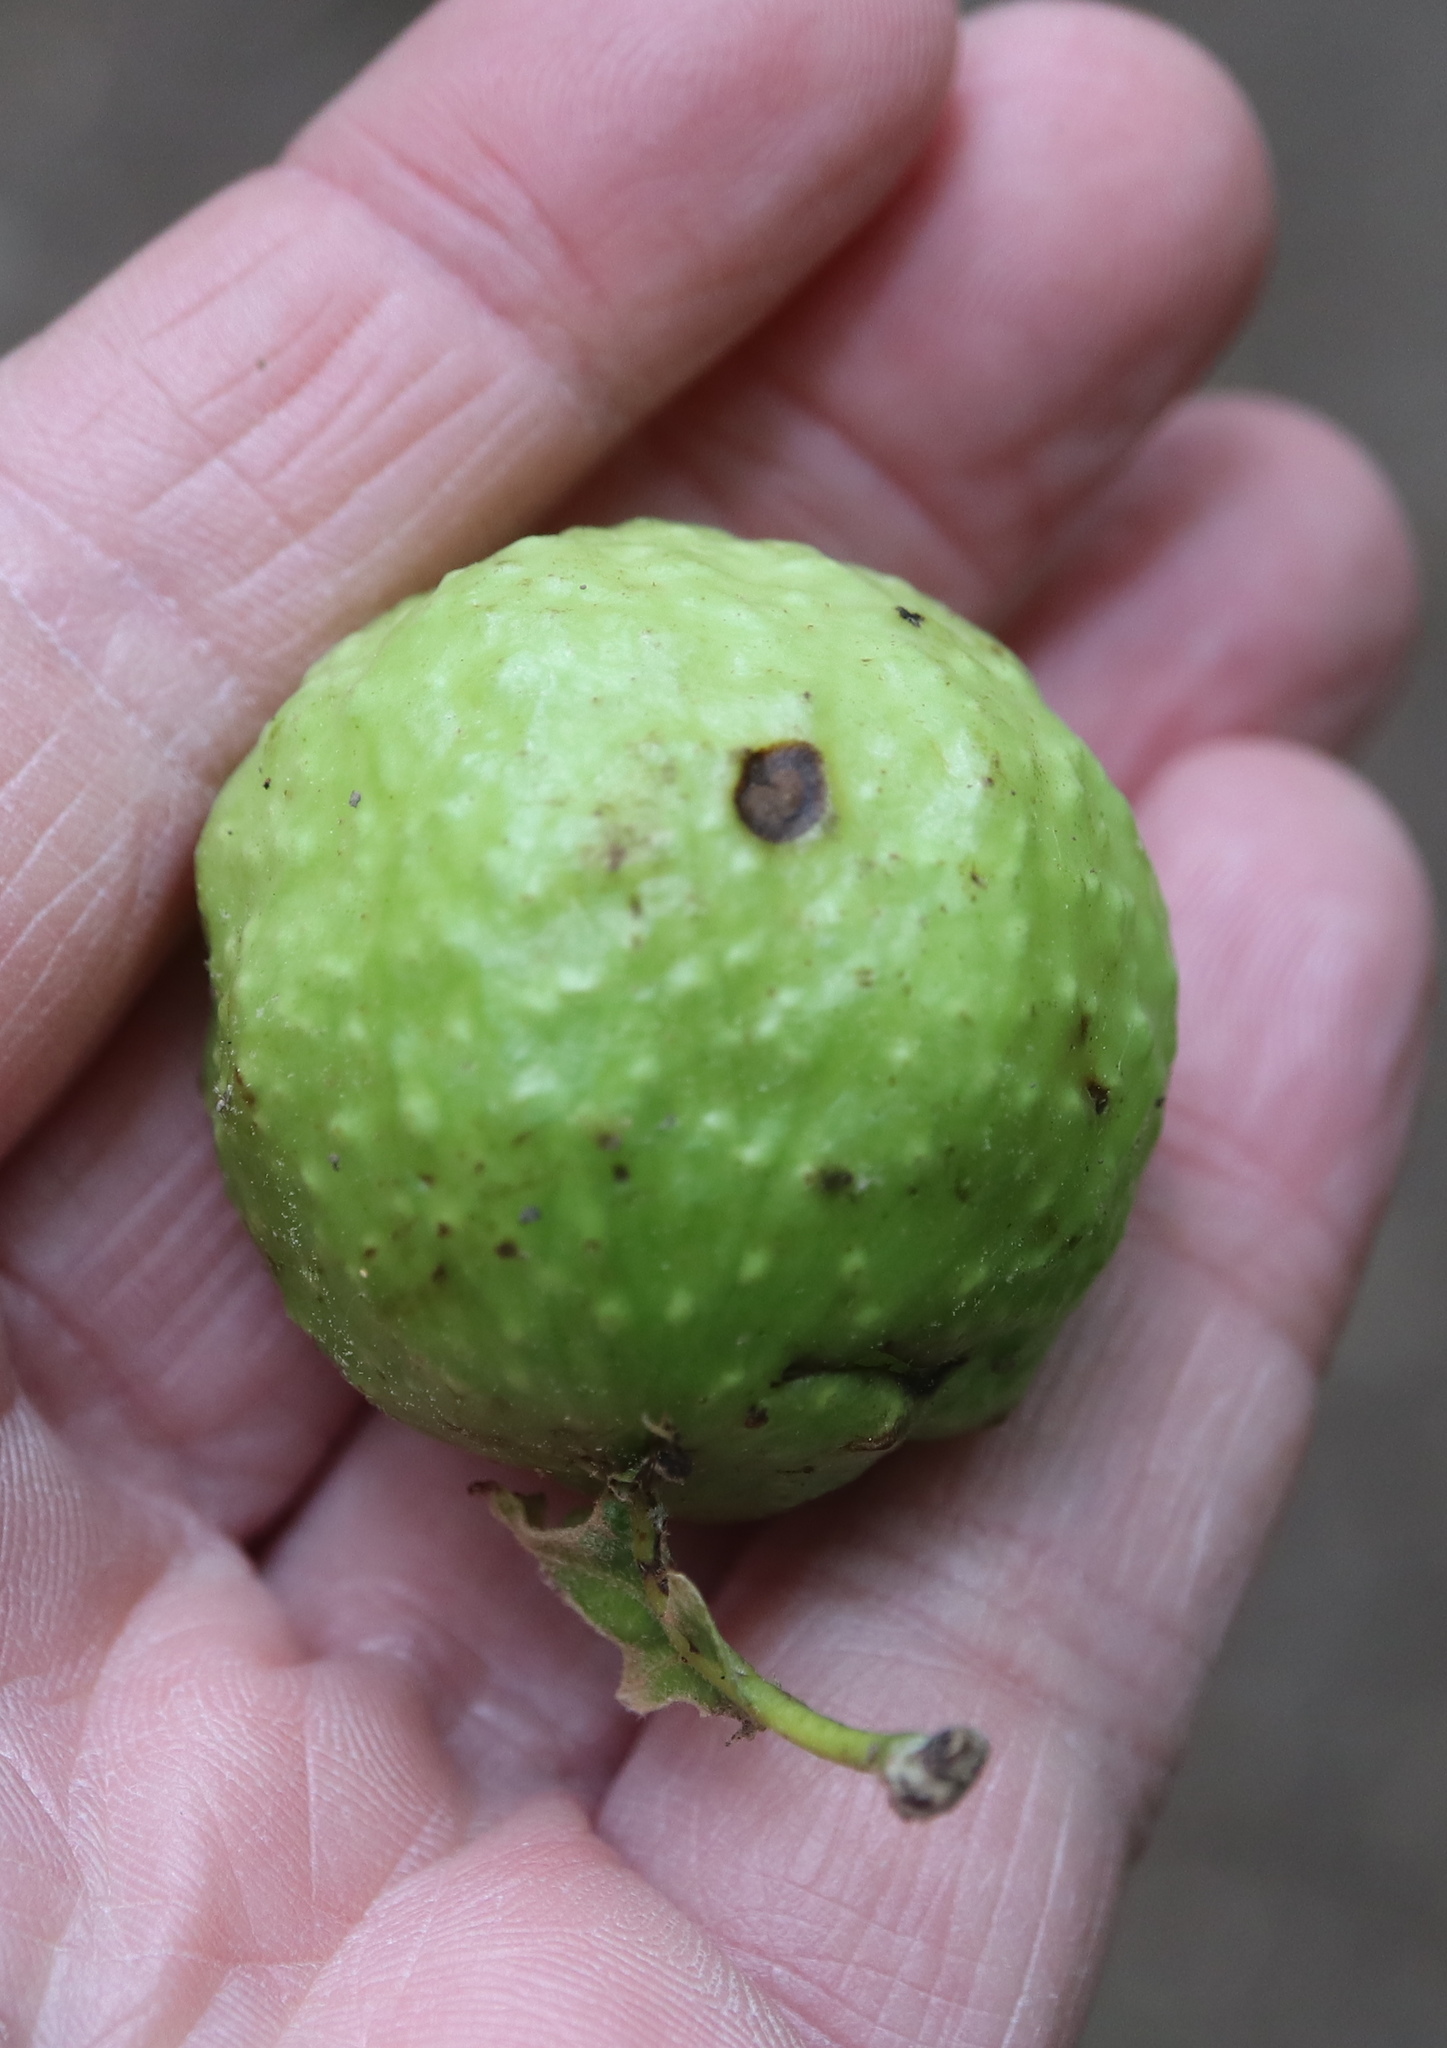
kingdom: Animalia
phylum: Arthropoda
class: Insecta
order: Hymenoptera
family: Cynipidae
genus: Amphibolips
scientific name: Amphibolips
